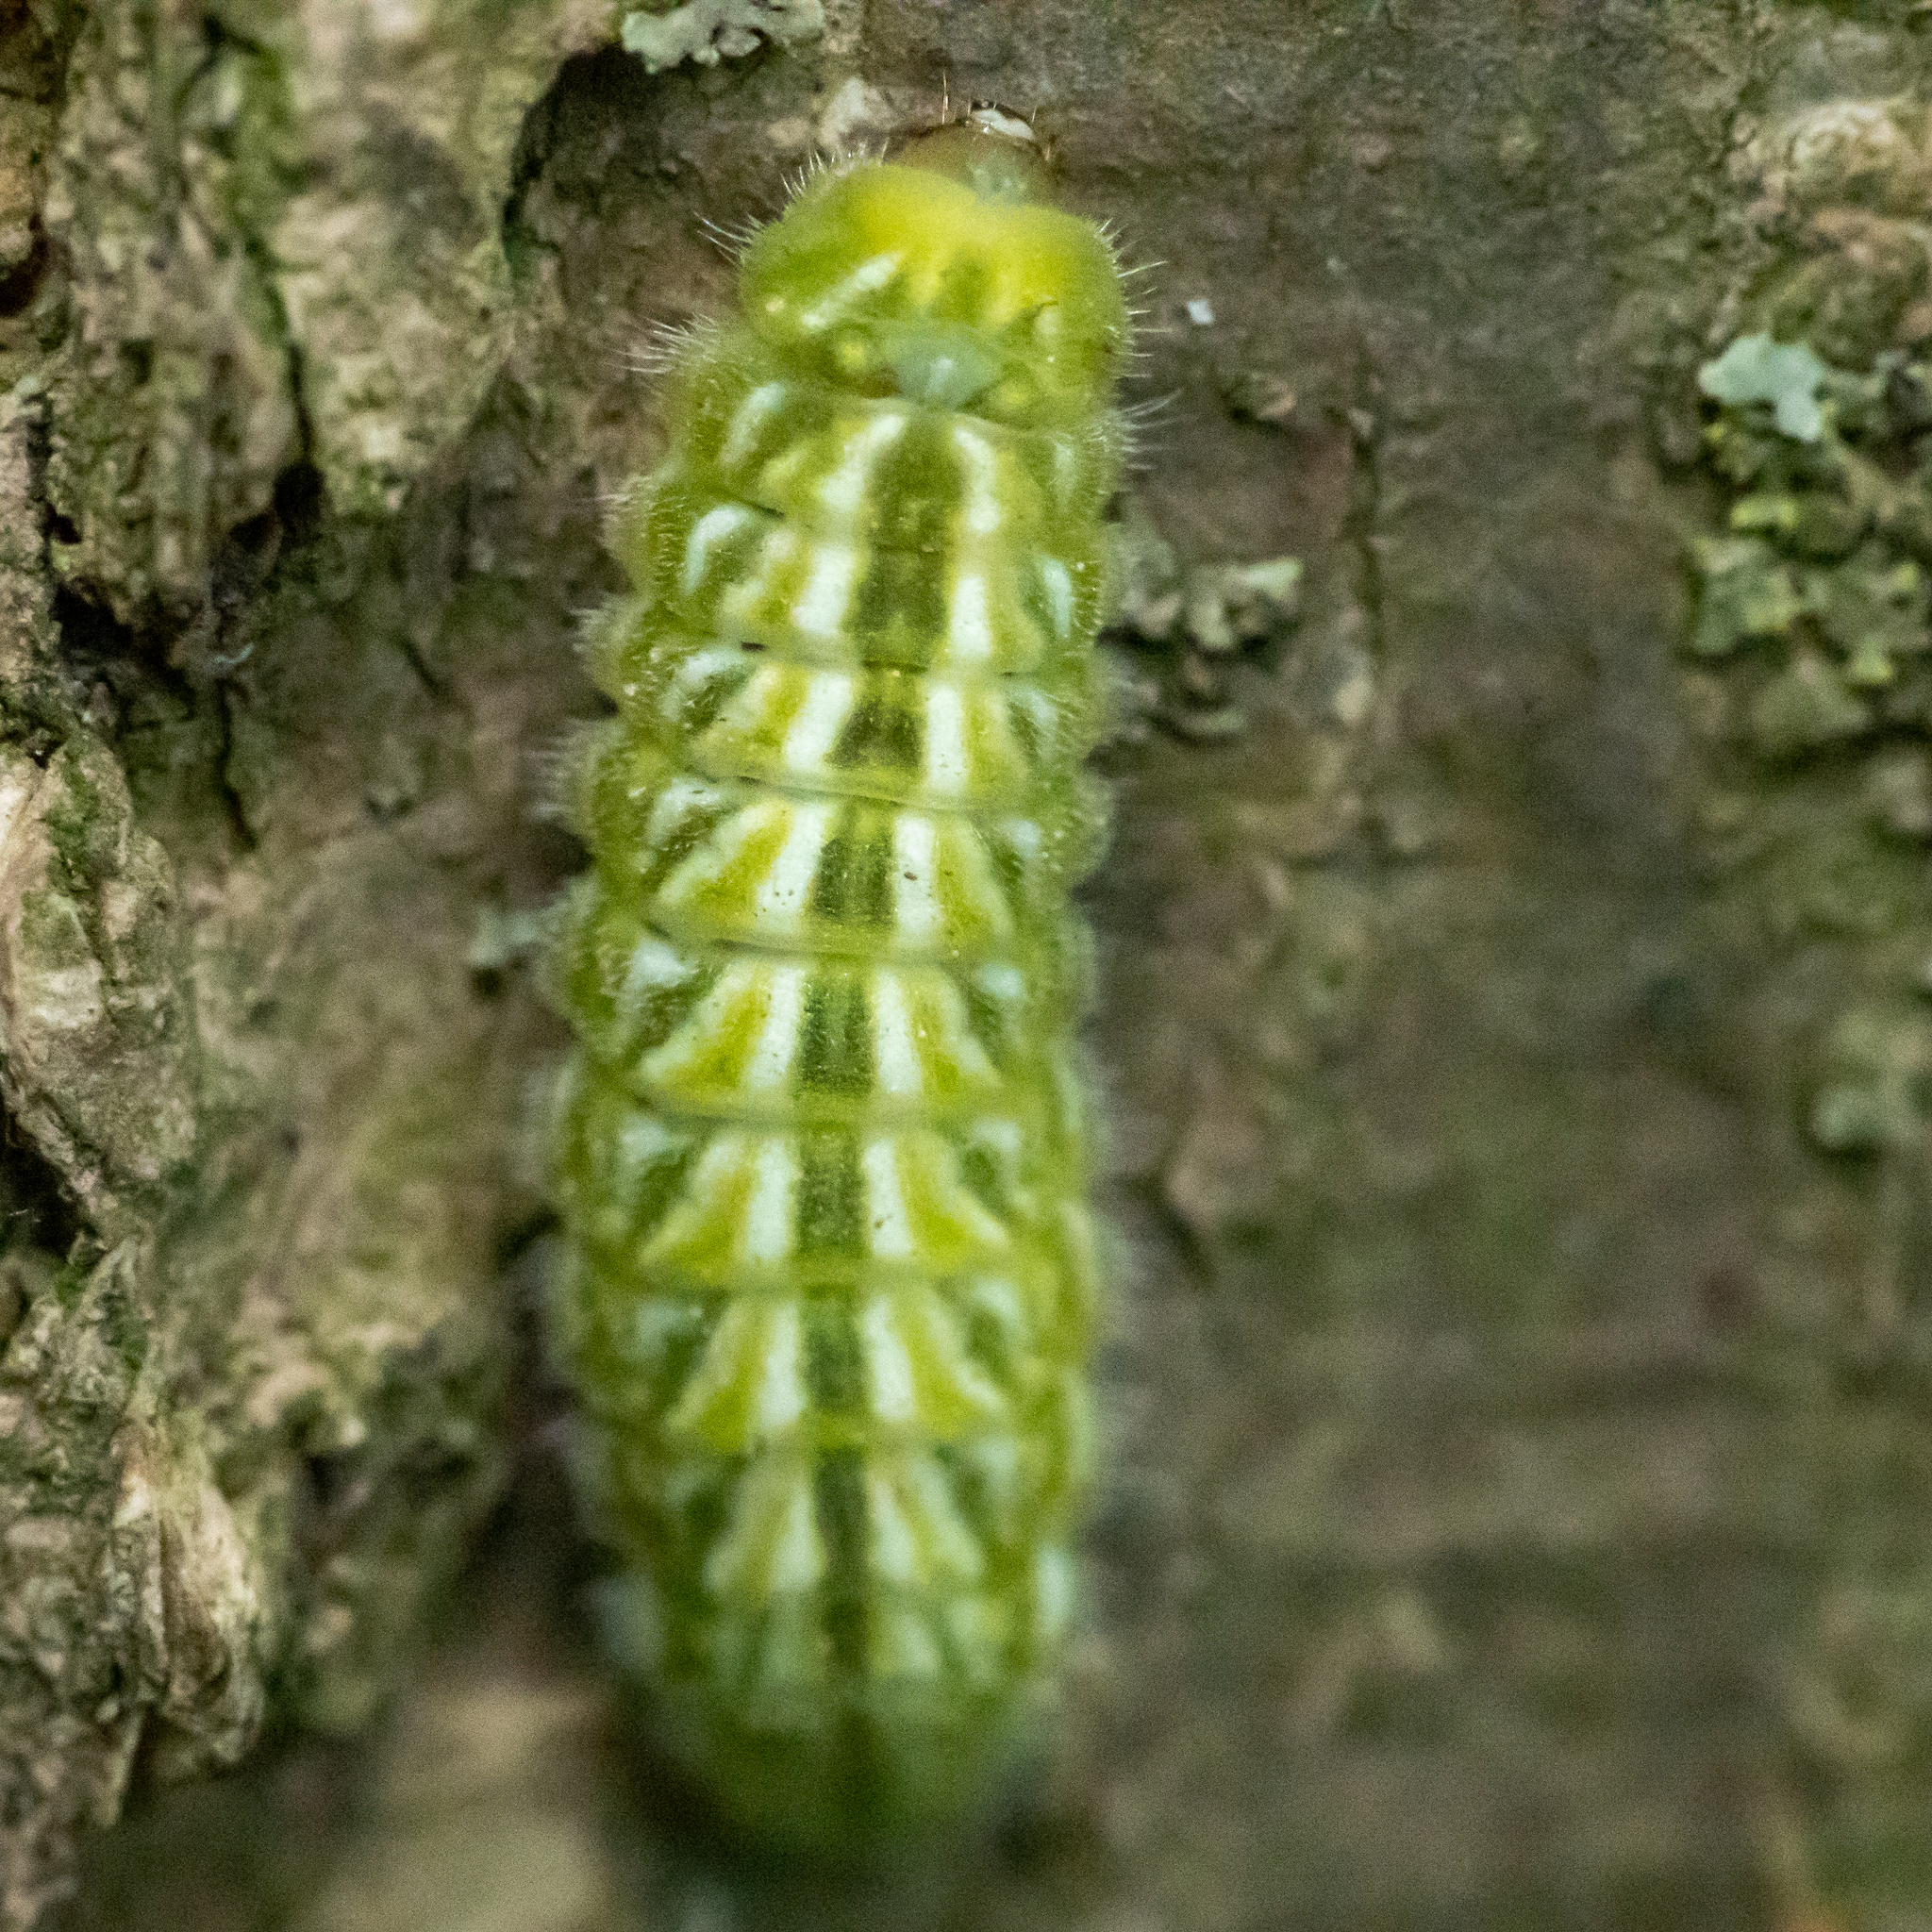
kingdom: Animalia
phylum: Arthropoda
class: Insecta
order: Lepidoptera
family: Lycaenidae
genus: Strymon
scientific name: Strymon caryaevorus
